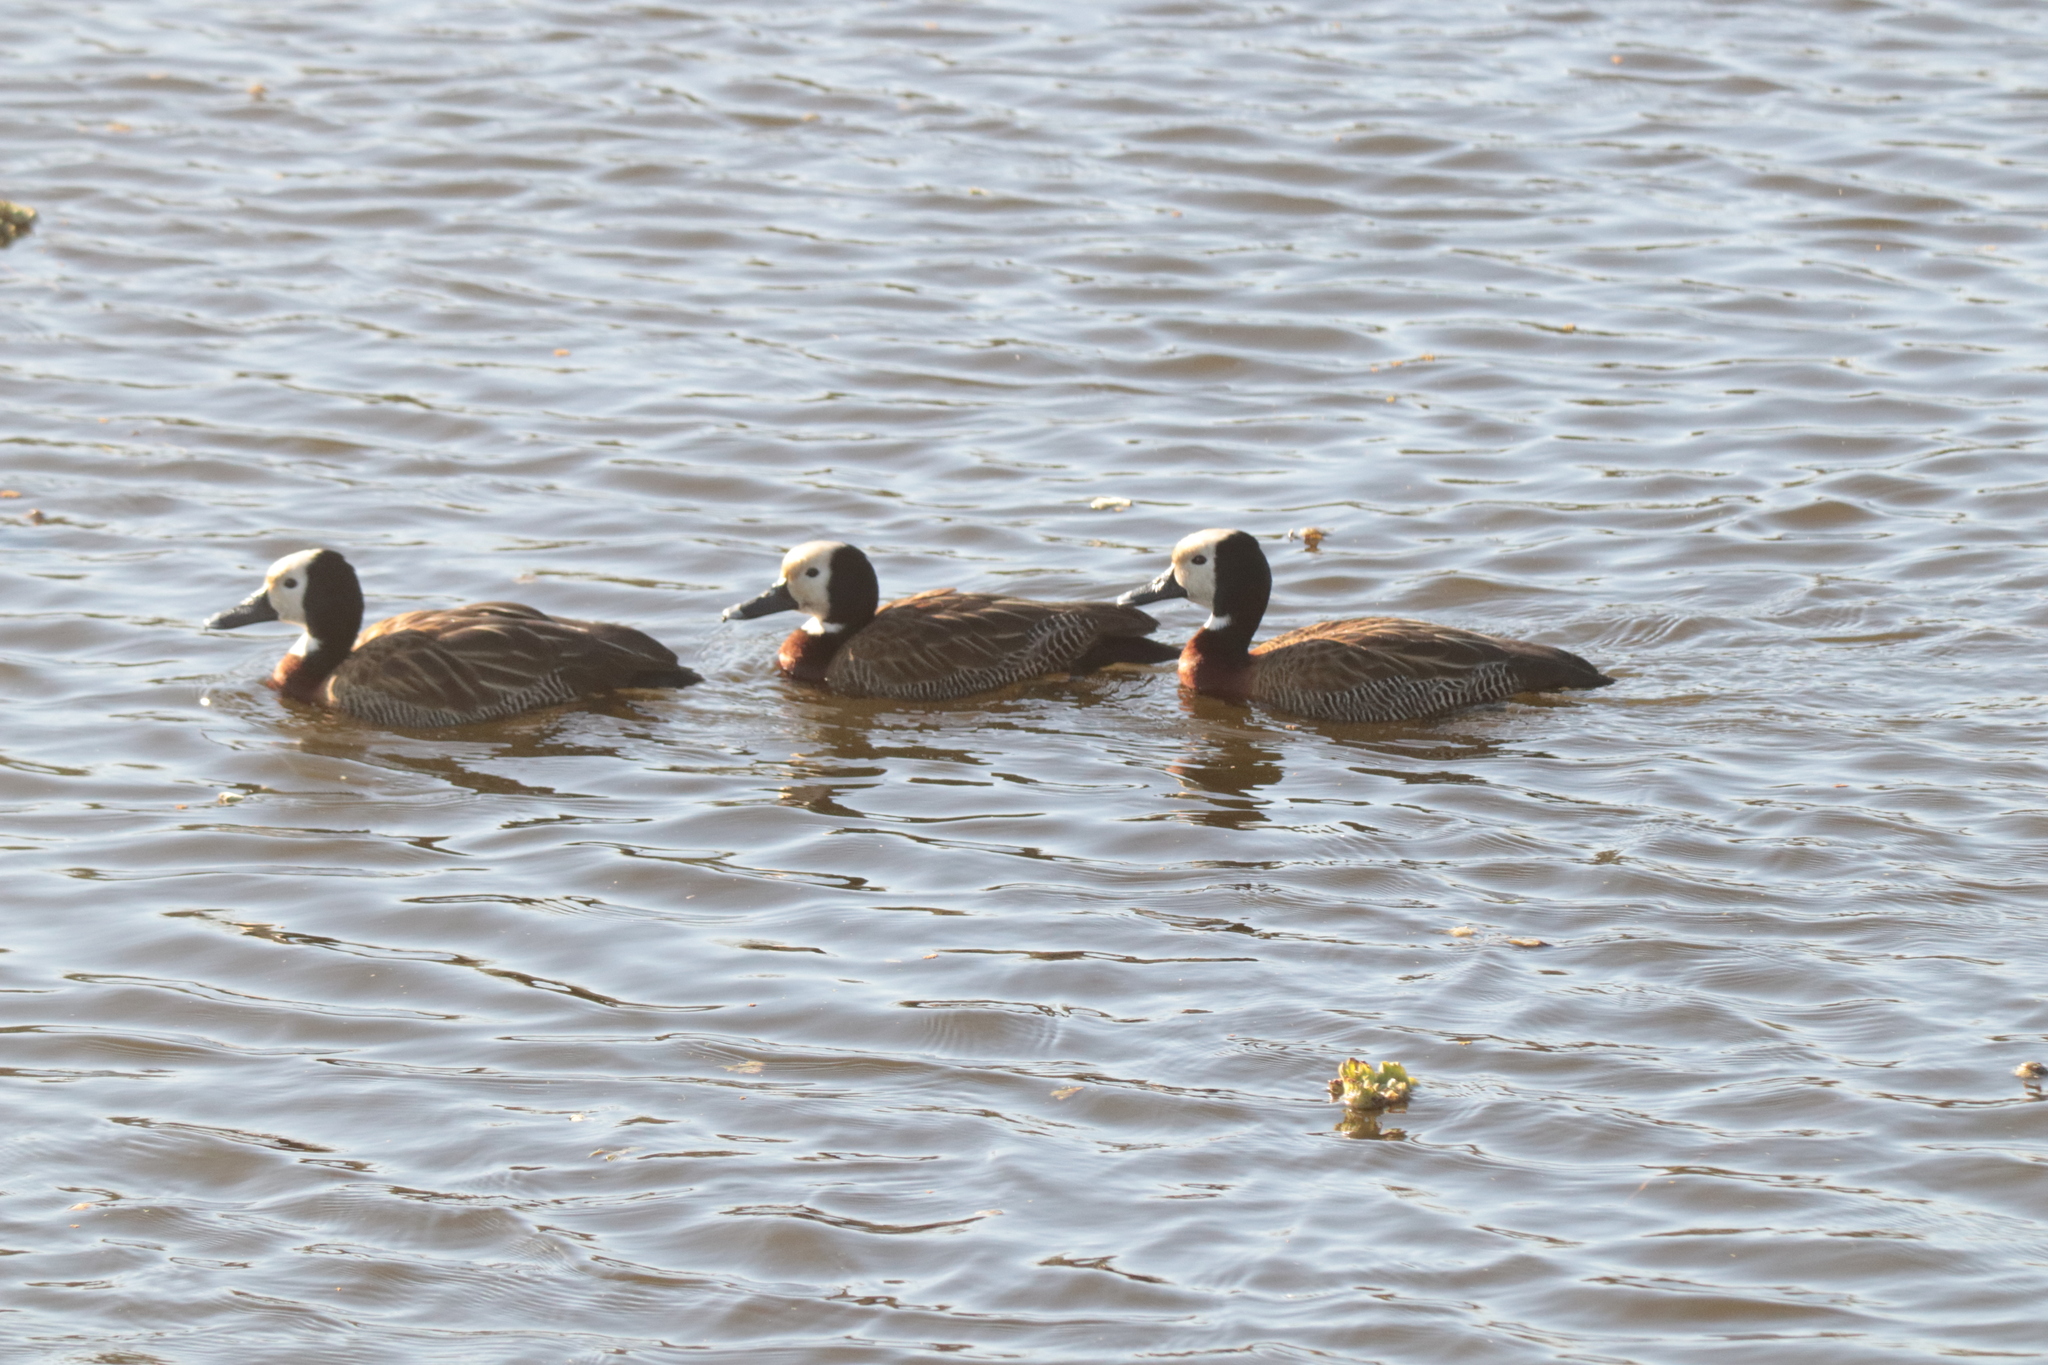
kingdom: Animalia
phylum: Chordata
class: Aves
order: Anseriformes
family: Anatidae
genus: Dendrocygna
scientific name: Dendrocygna viduata
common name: White-faced whistling duck
